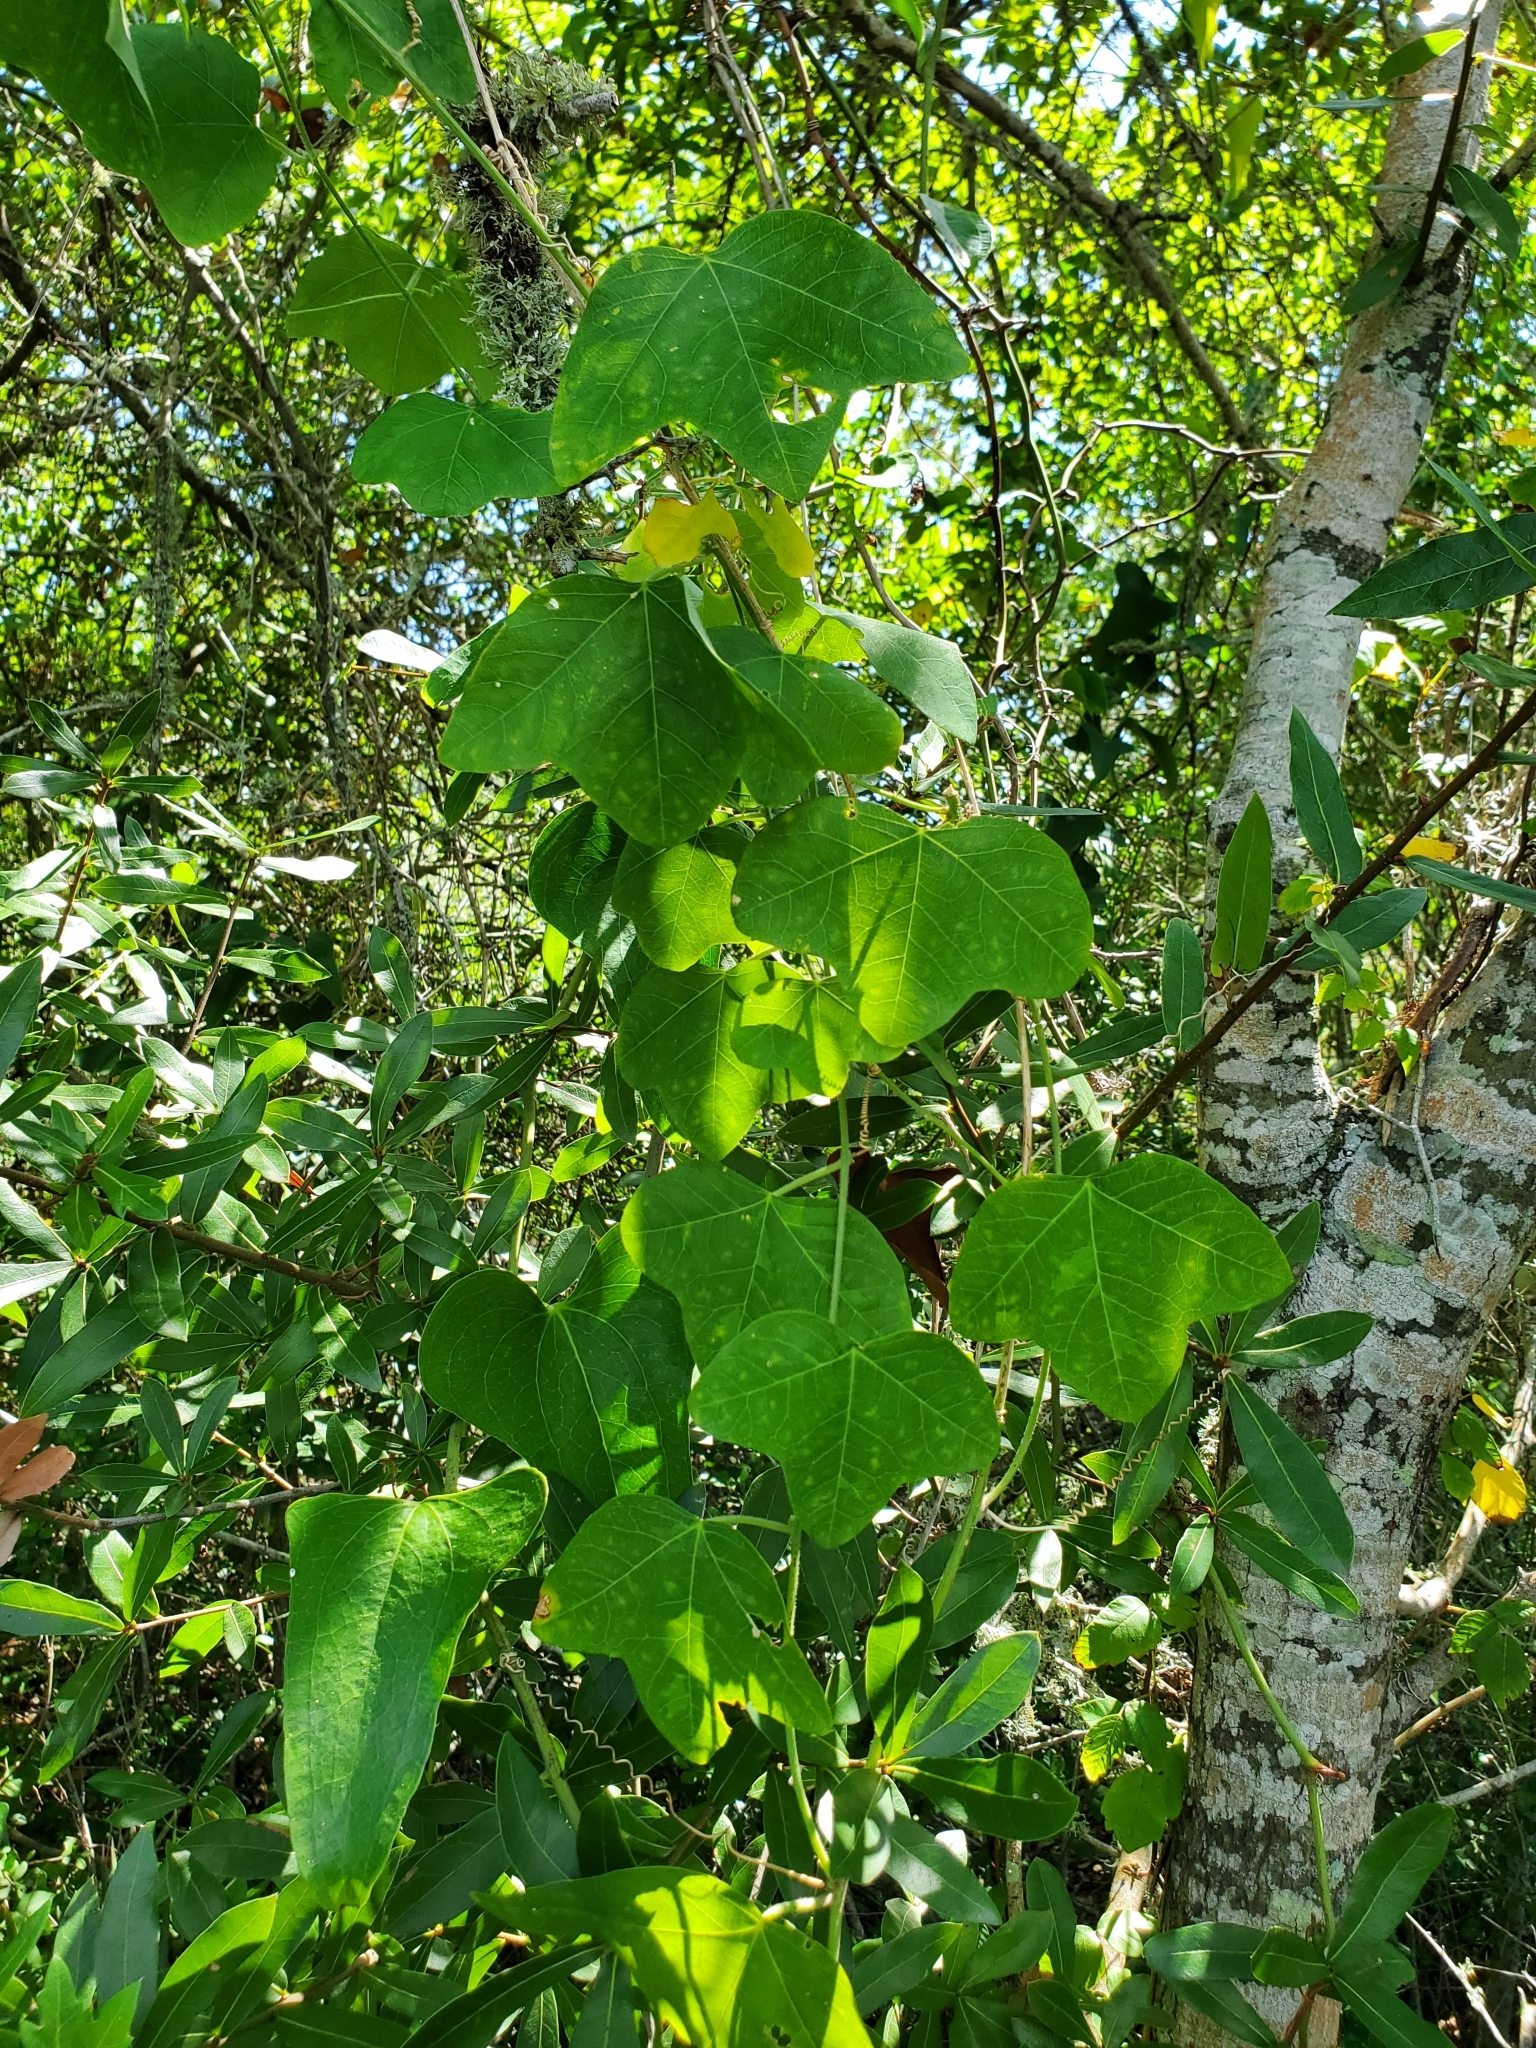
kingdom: Plantae
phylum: Tracheophyta
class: Magnoliopsida
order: Malpighiales
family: Passifloraceae
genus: Passiflora
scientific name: Passiflora lutea
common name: Yellow passionflower
